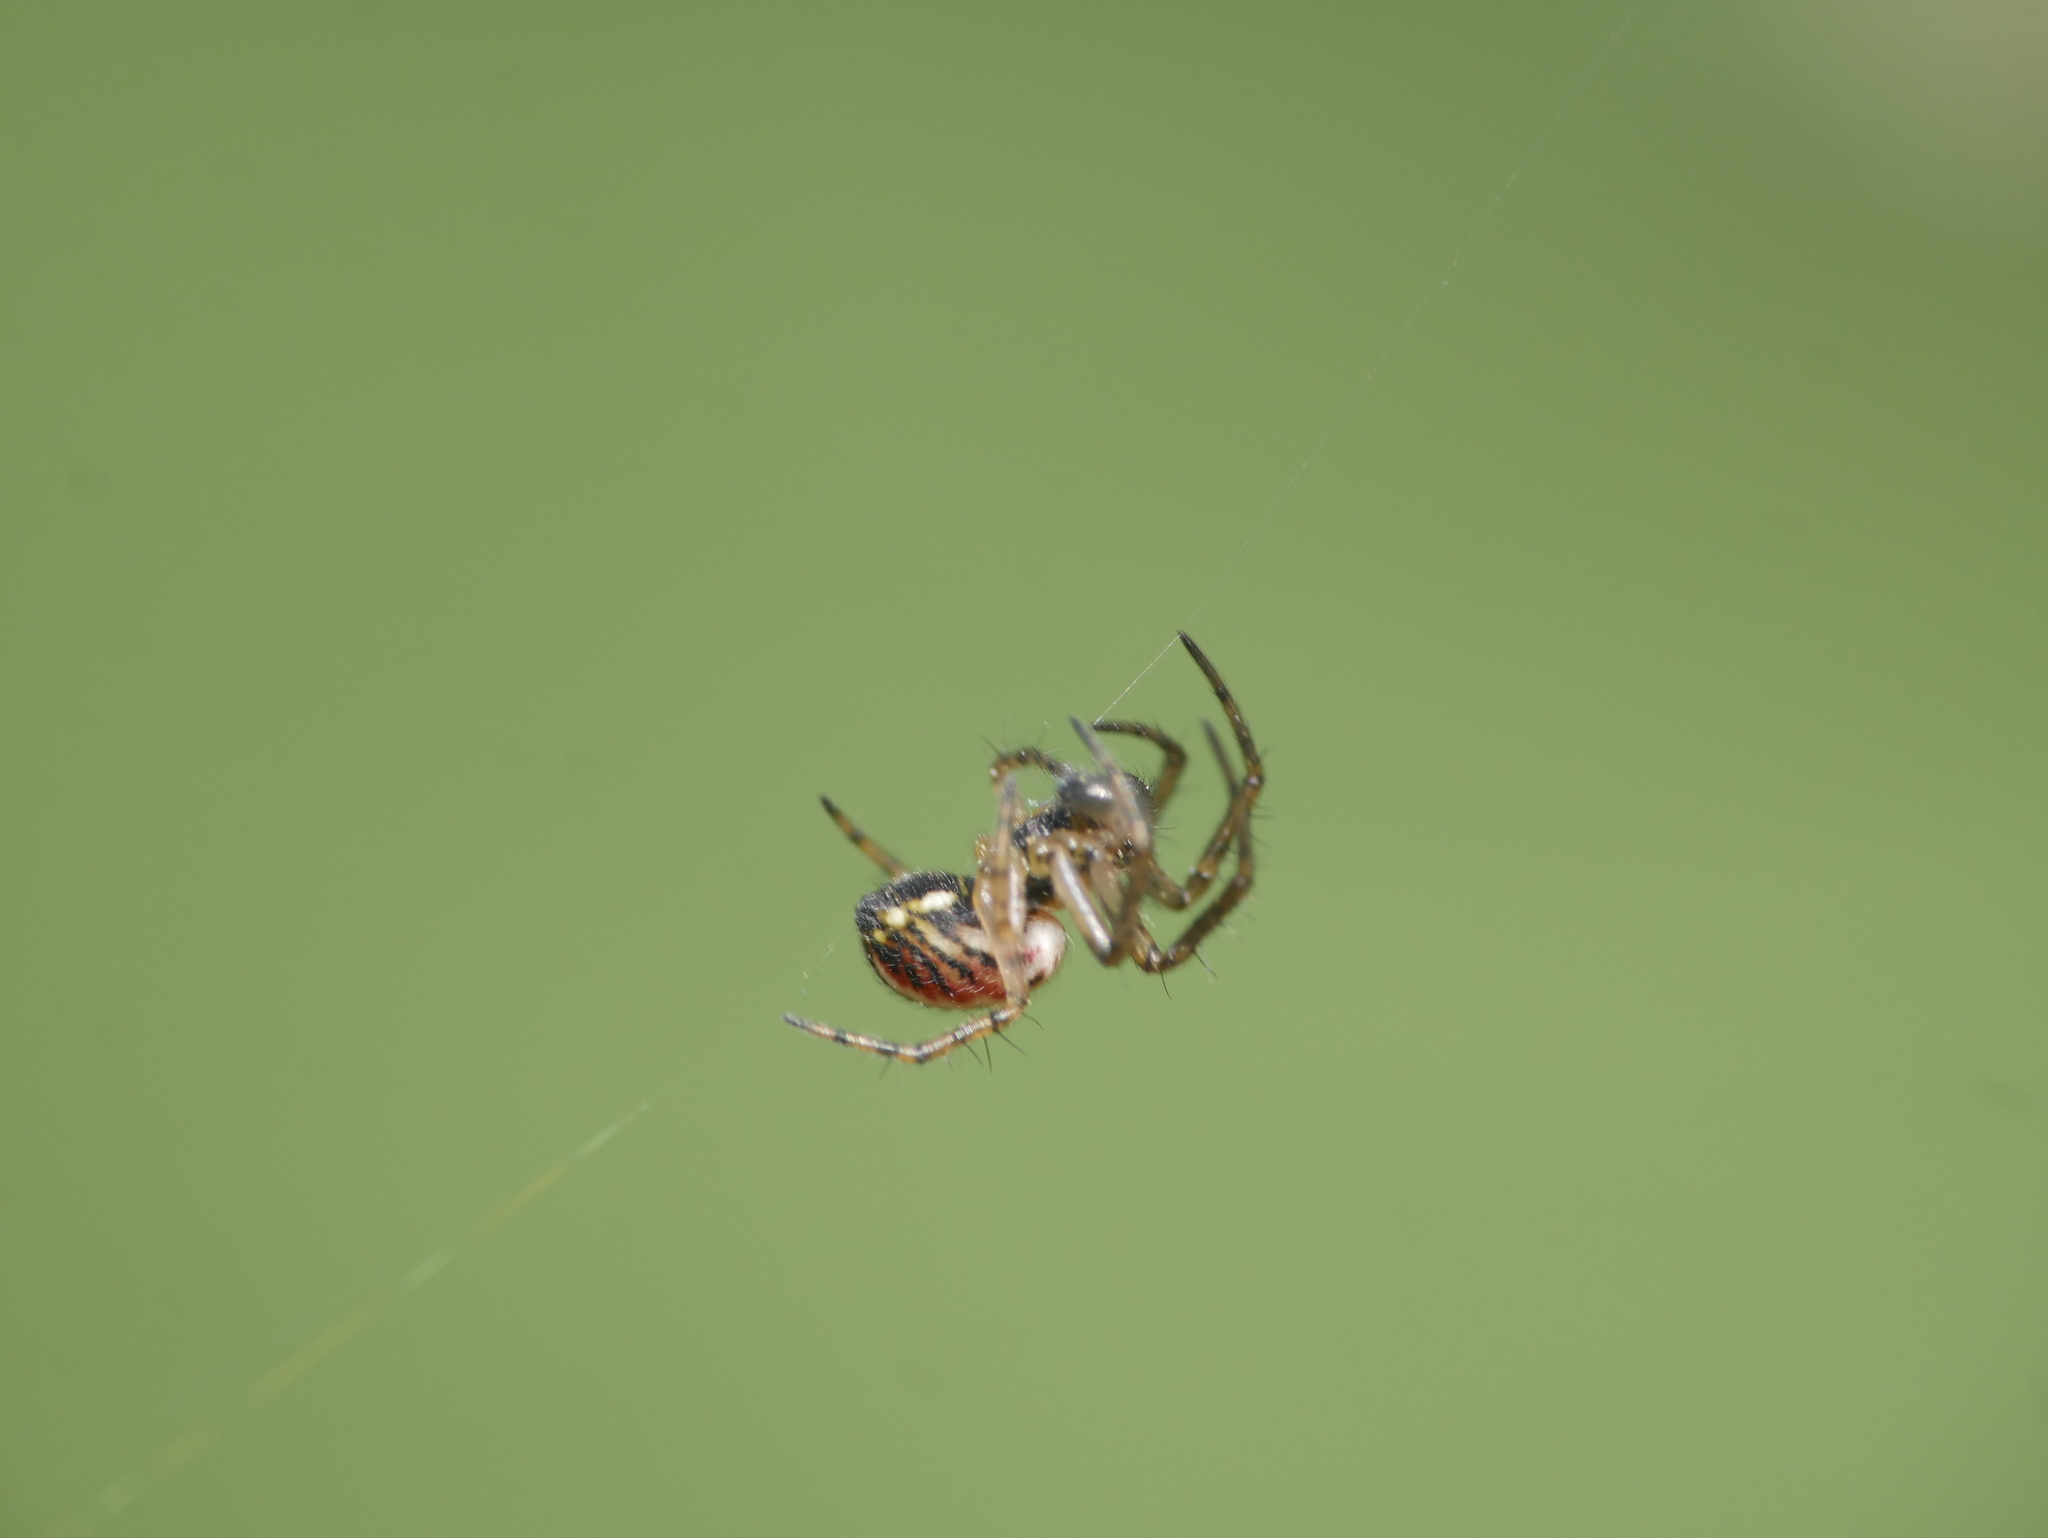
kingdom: Animalia
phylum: Arthropoda
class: Arachnida
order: Araneae
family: Araneidae
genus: Mangora
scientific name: Mangora acalypha
